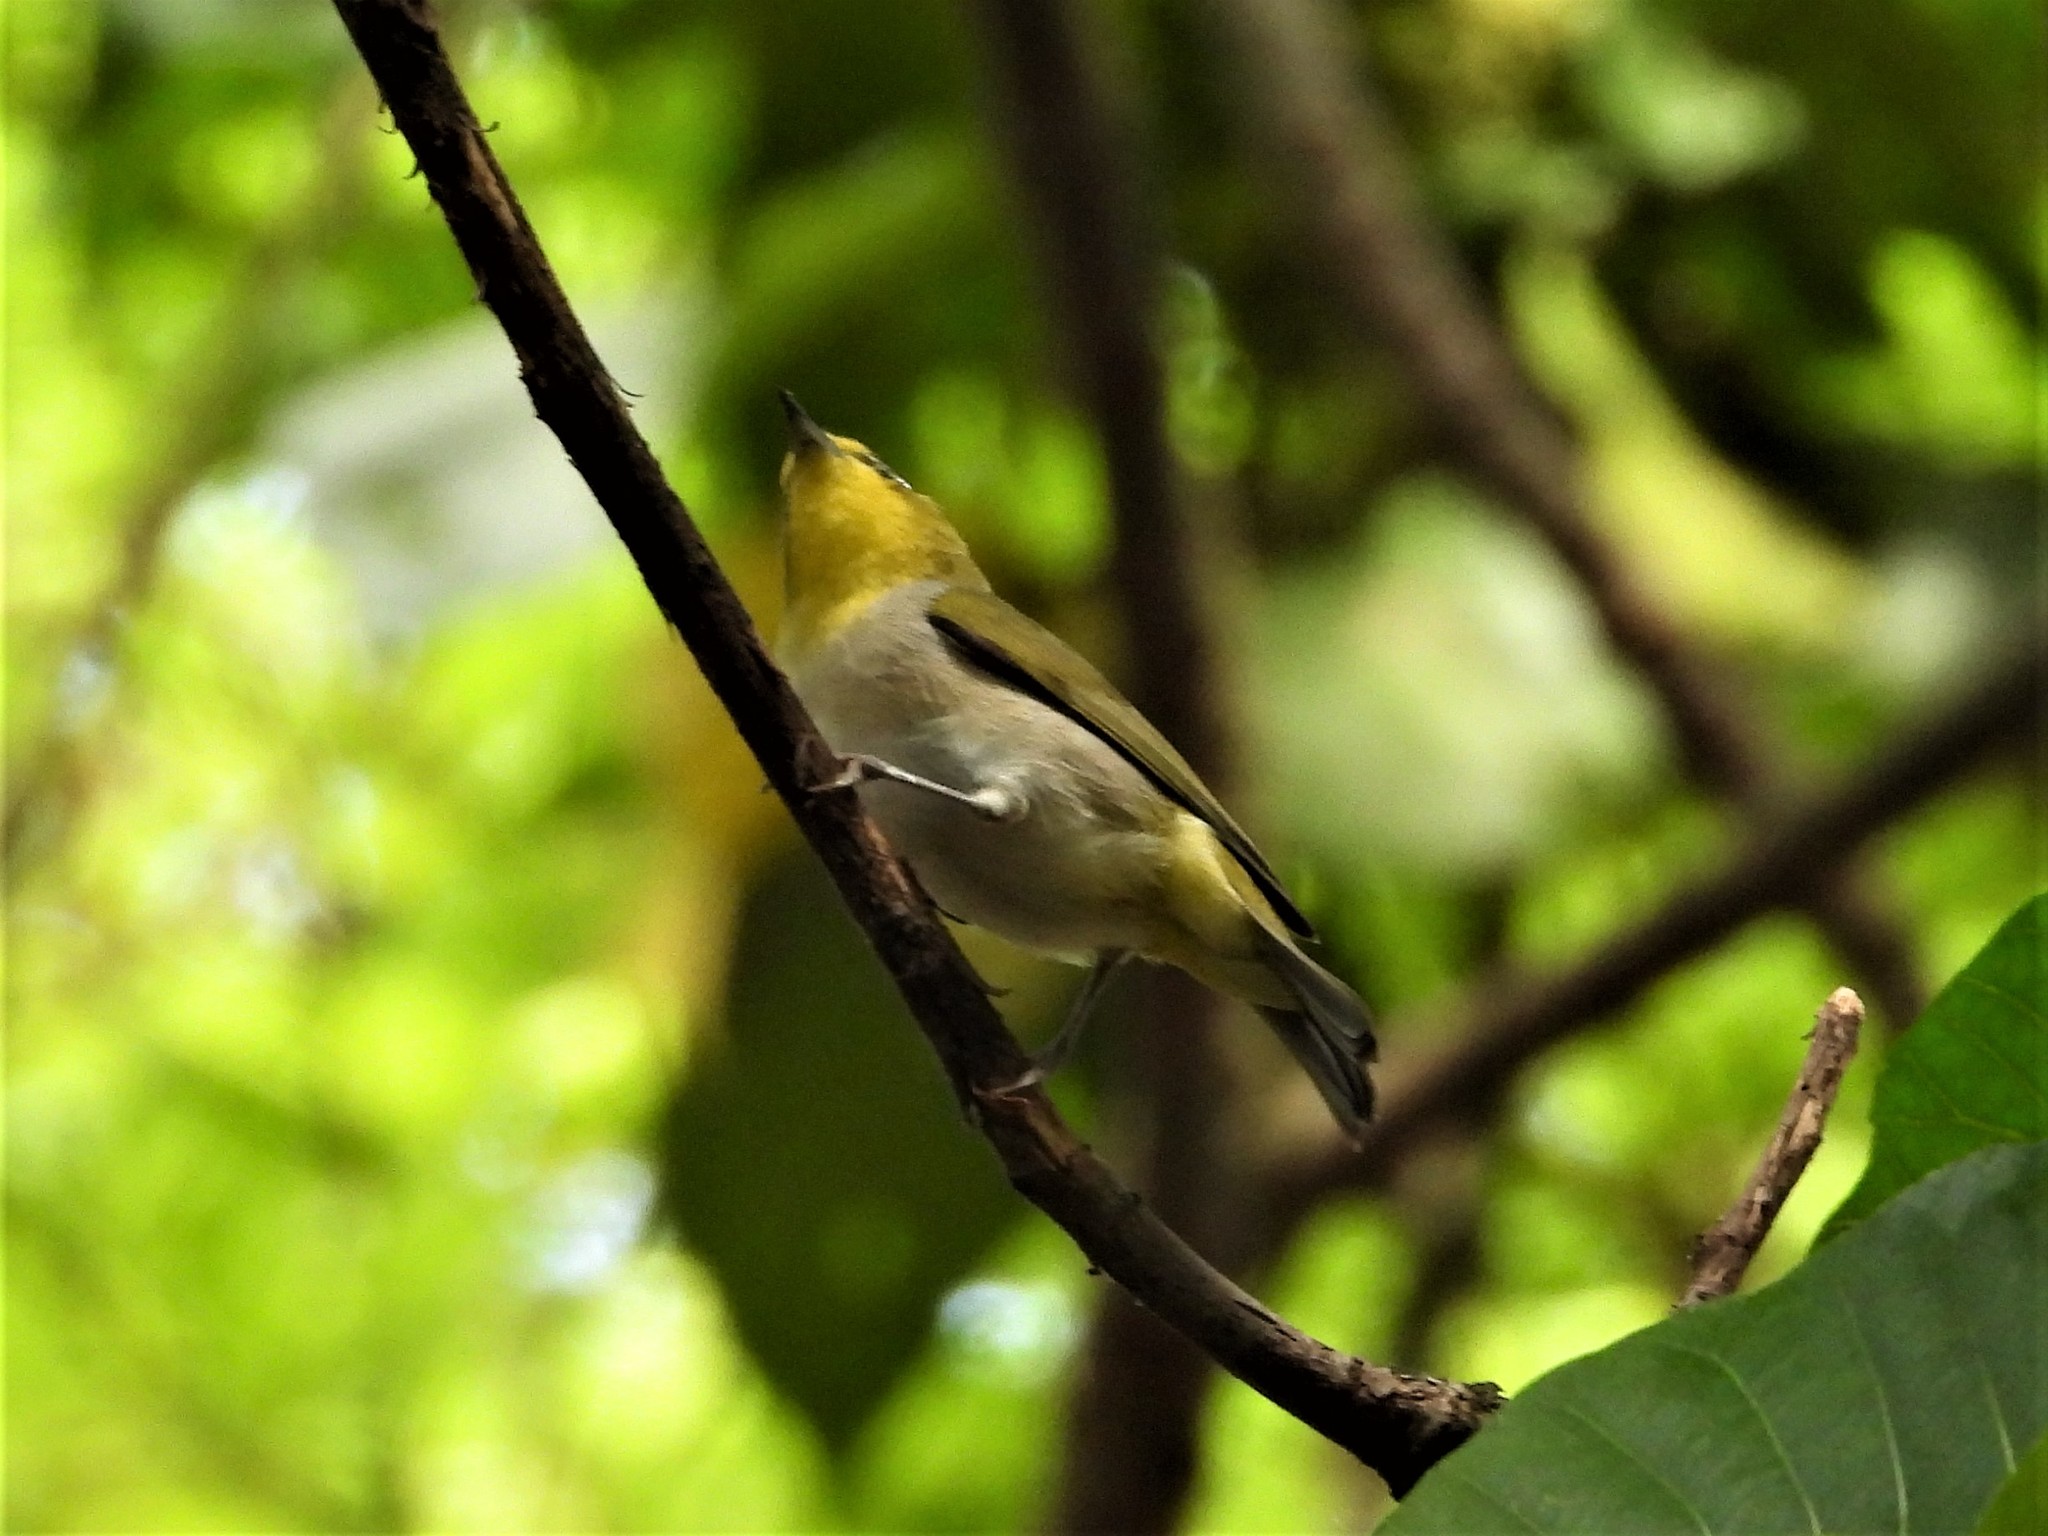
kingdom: Animalia
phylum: Chordata
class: Aves
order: Passeriformes
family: Zosteropidae
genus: Zosterops
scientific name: Zosterops simplex
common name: Swinhoe's white-eye
